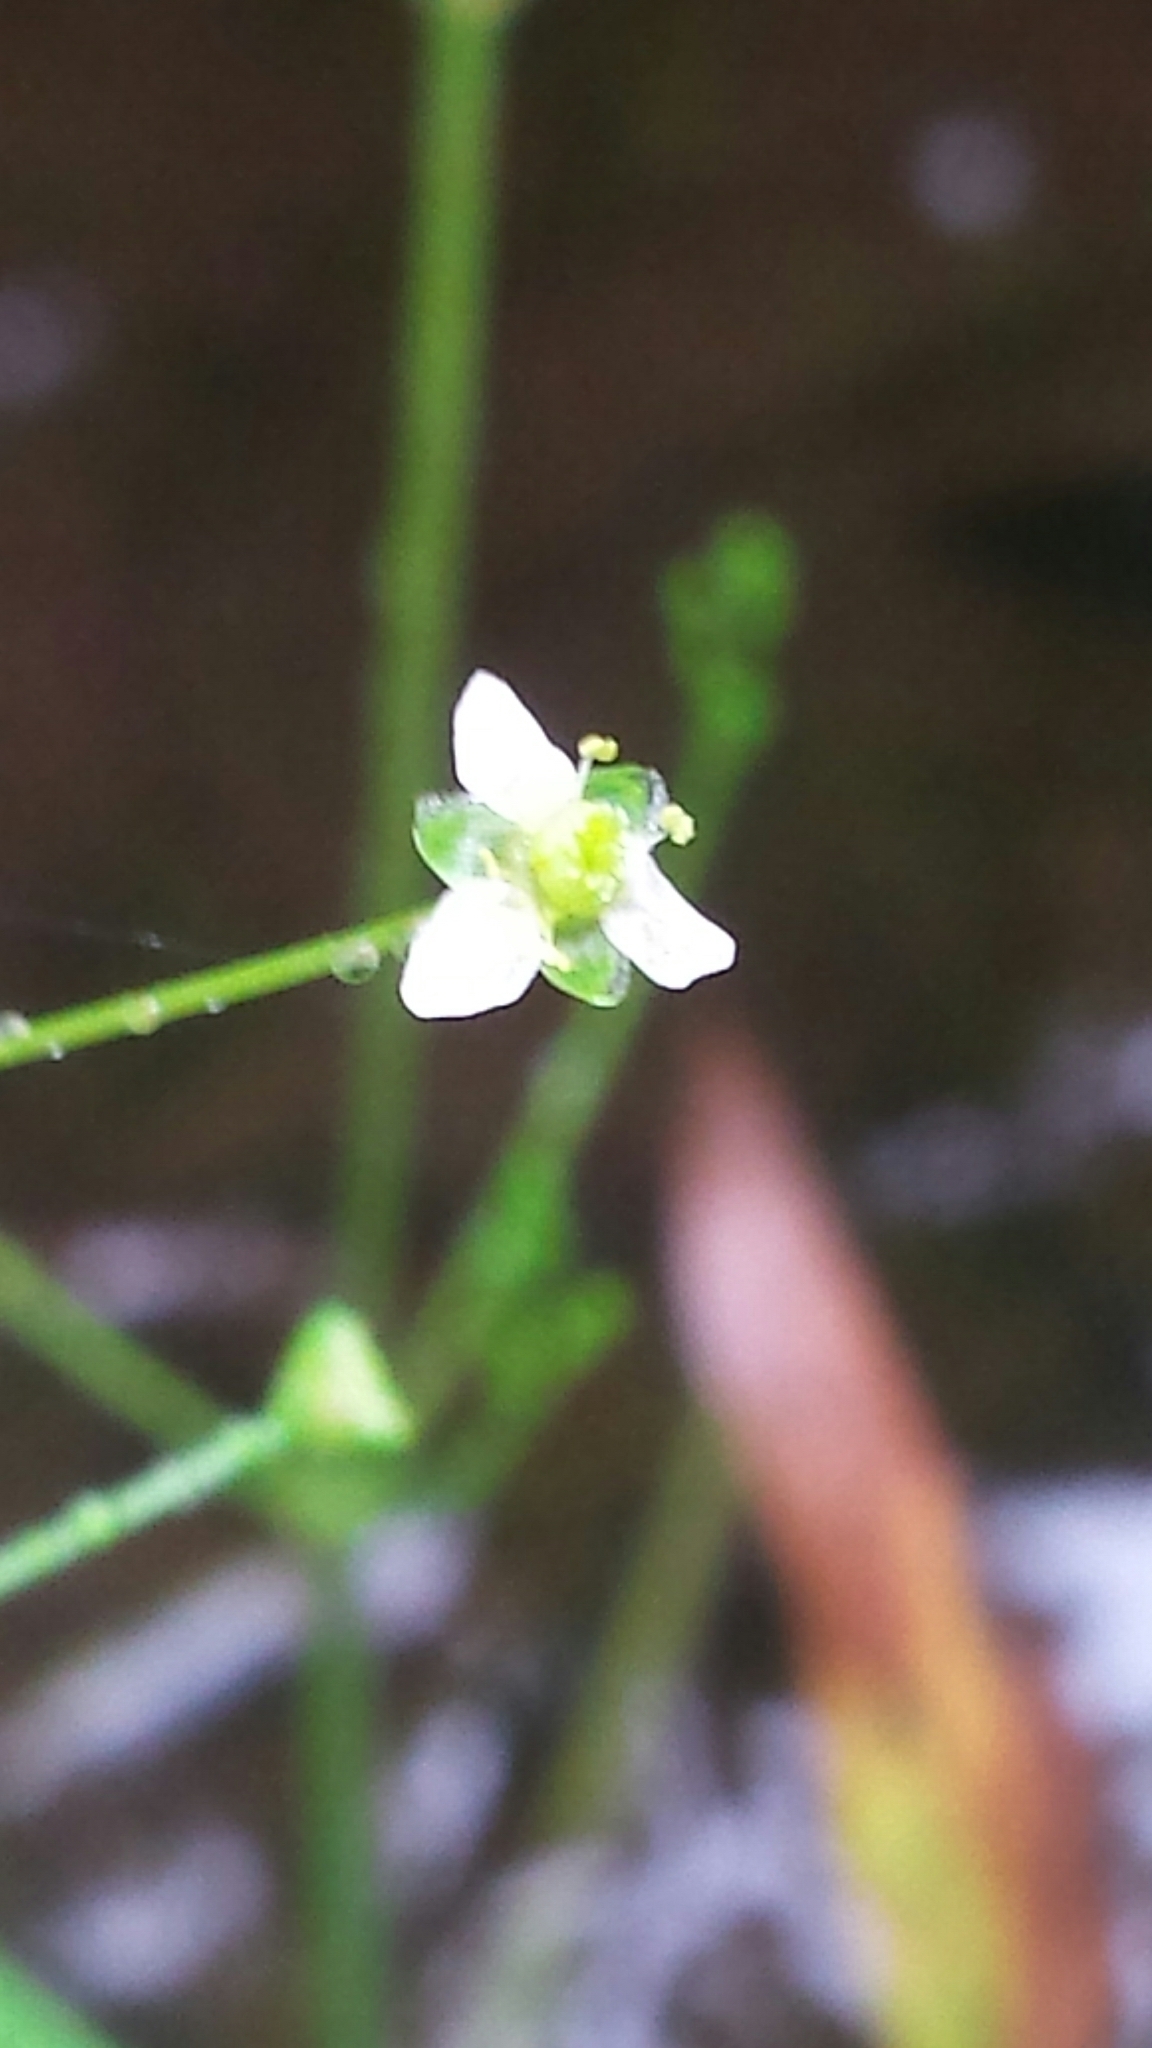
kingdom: Plantae
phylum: Tracheophyta
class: Liliopsida
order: Alismatales
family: Alismataceae
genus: Alisma
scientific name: Alisma triviale
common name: Northern water-plantain
